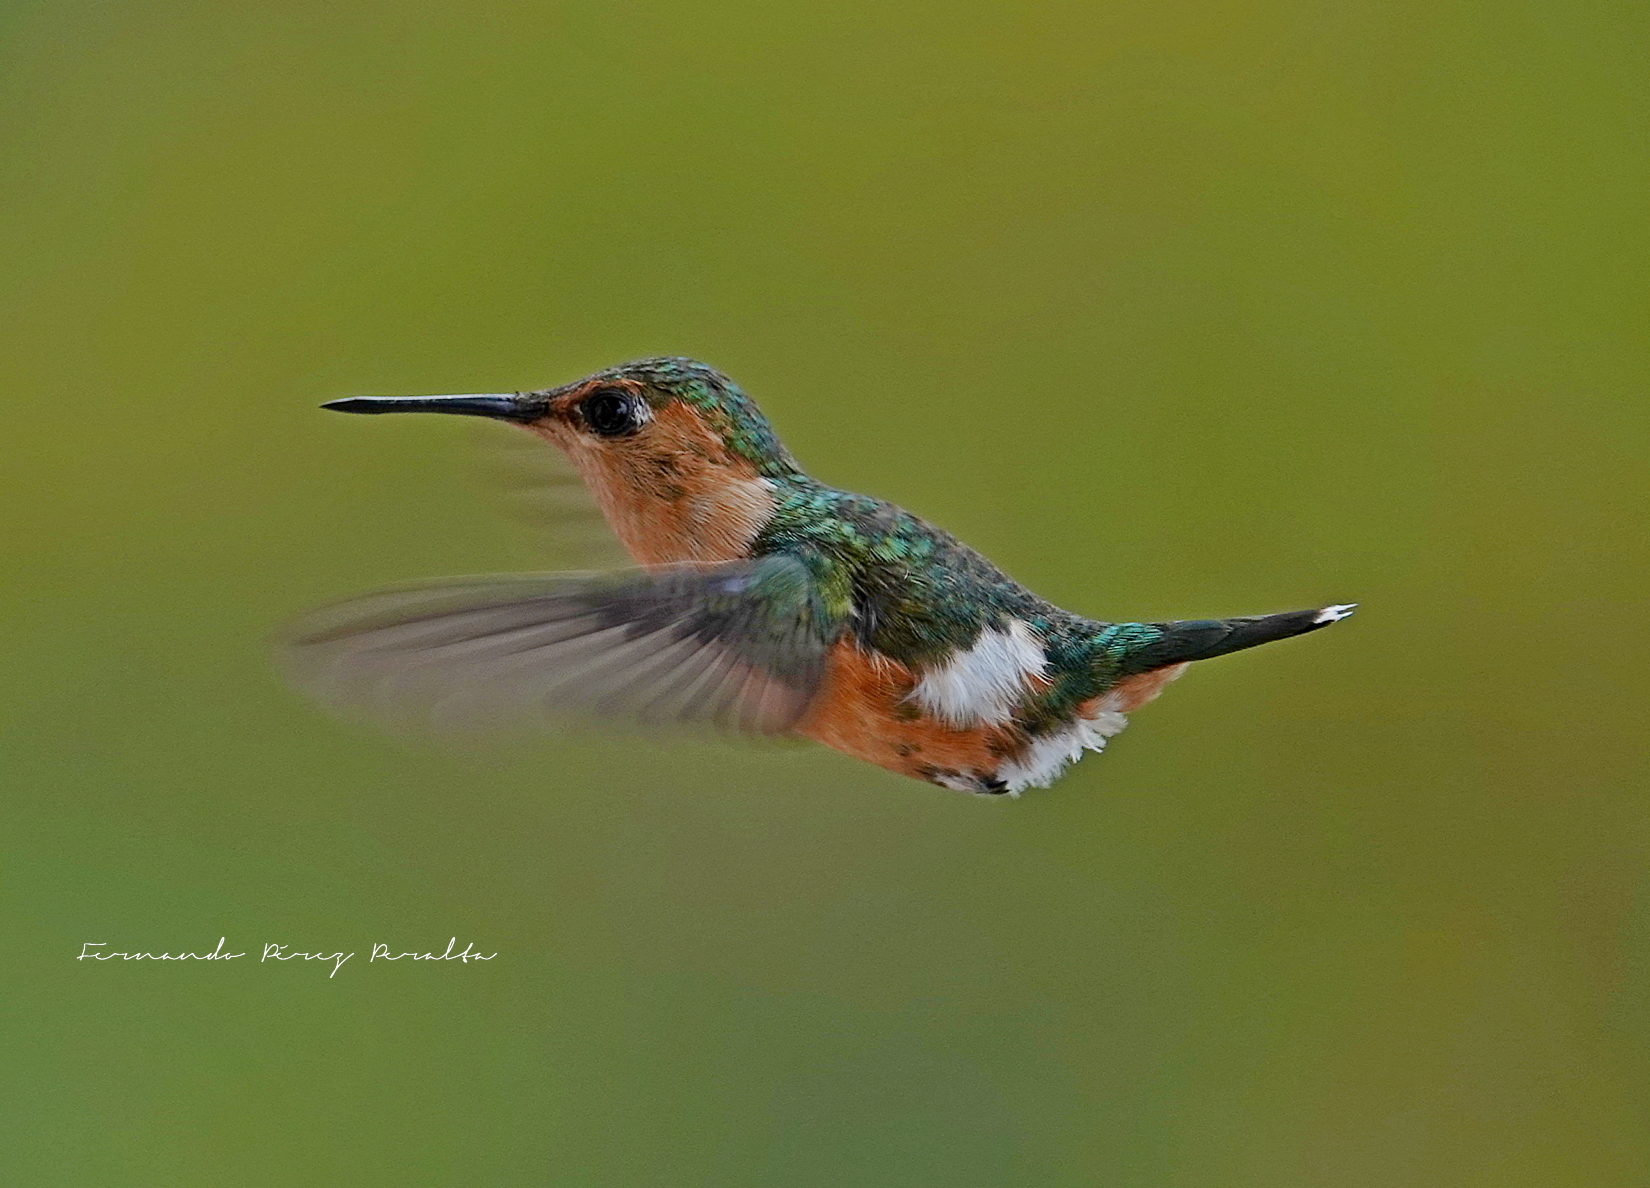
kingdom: Animalia
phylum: Chordata
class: Aves
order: Apodiformes
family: Trochilidae
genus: Tilmatura
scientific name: Tilmatura dupontii
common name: Sparkling-tailed woodstar
